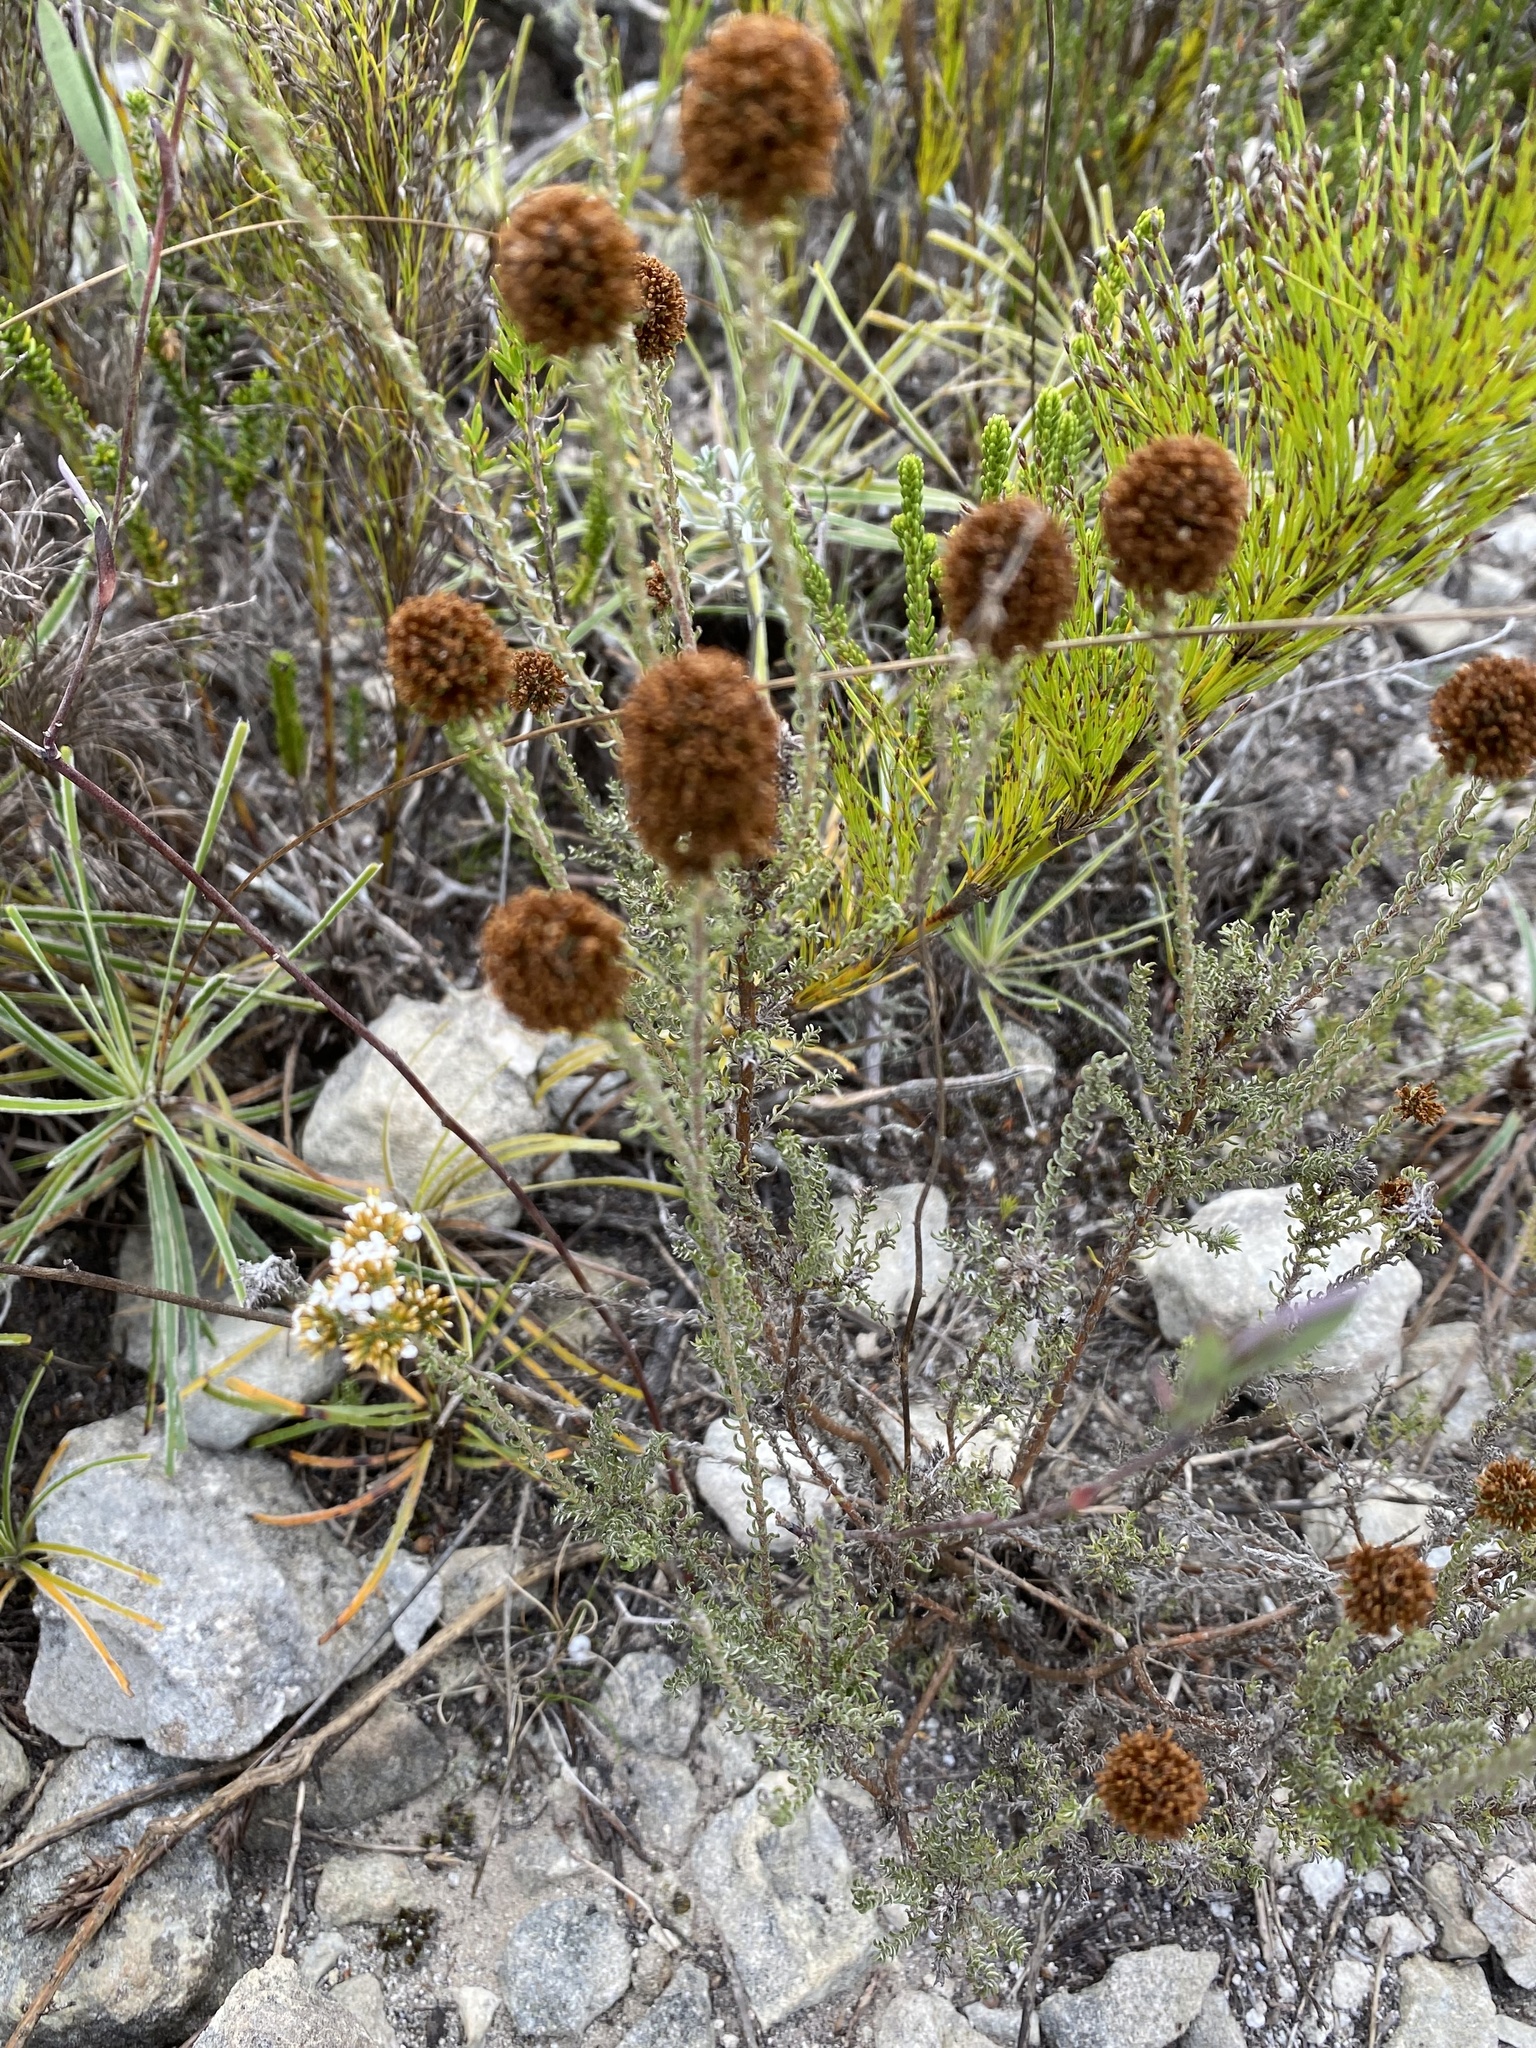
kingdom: Plantae
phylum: Tracheophyta
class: Magnoliopsida
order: Asterales
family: Asteraceae
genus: Disparago
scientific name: Disparago anomala
